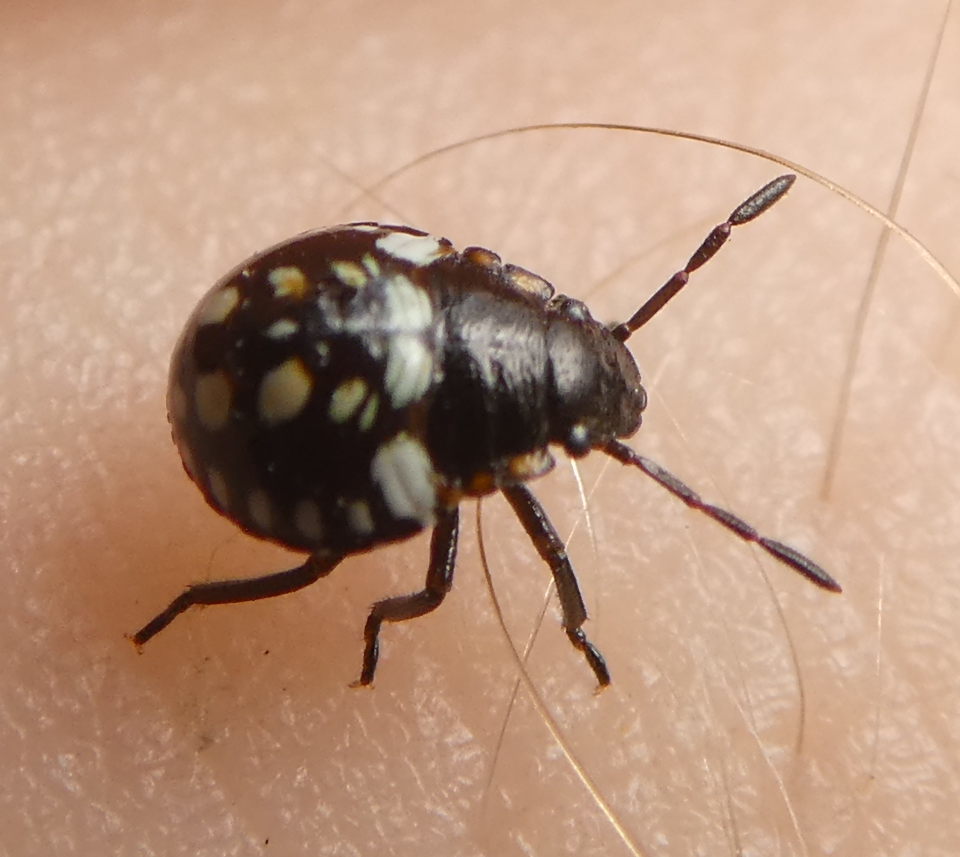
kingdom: Animalia
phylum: Arthropoda
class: Insecta
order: Hemiptera
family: Pentatomidae
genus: Nezara
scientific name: Nezara viridula
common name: Southern green stink bug
